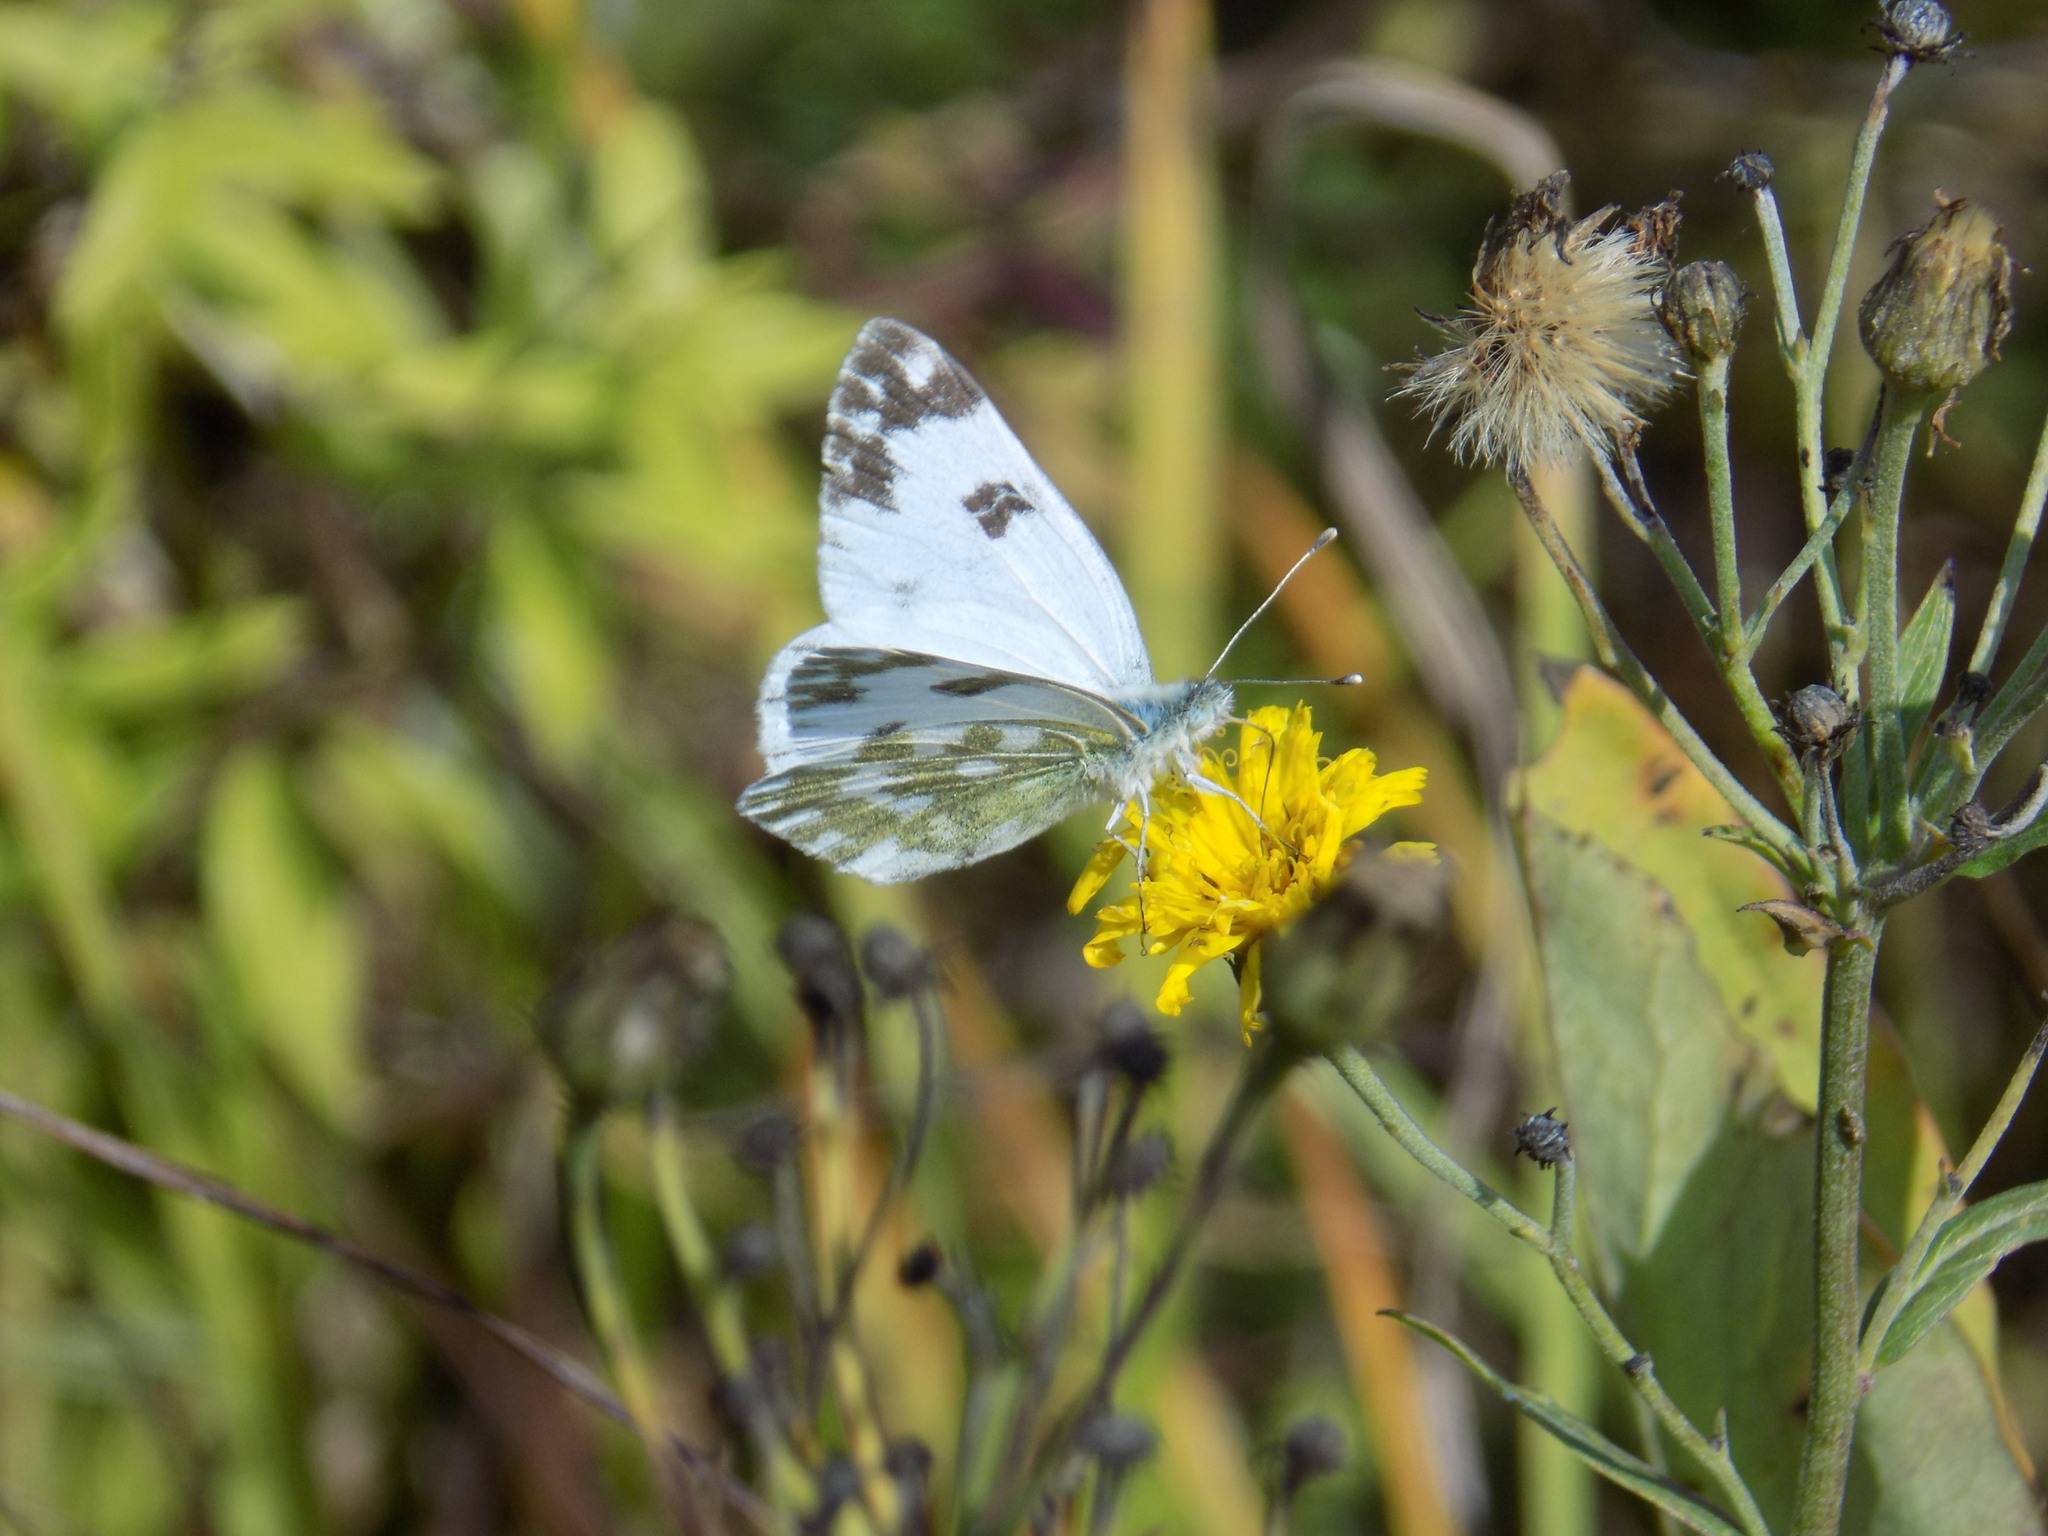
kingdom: Animalia
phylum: Arthropoda
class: Insecta
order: Lepidoptera
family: Pieridae
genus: Pontia
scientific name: Pontia edusa
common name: Eastern bath white
